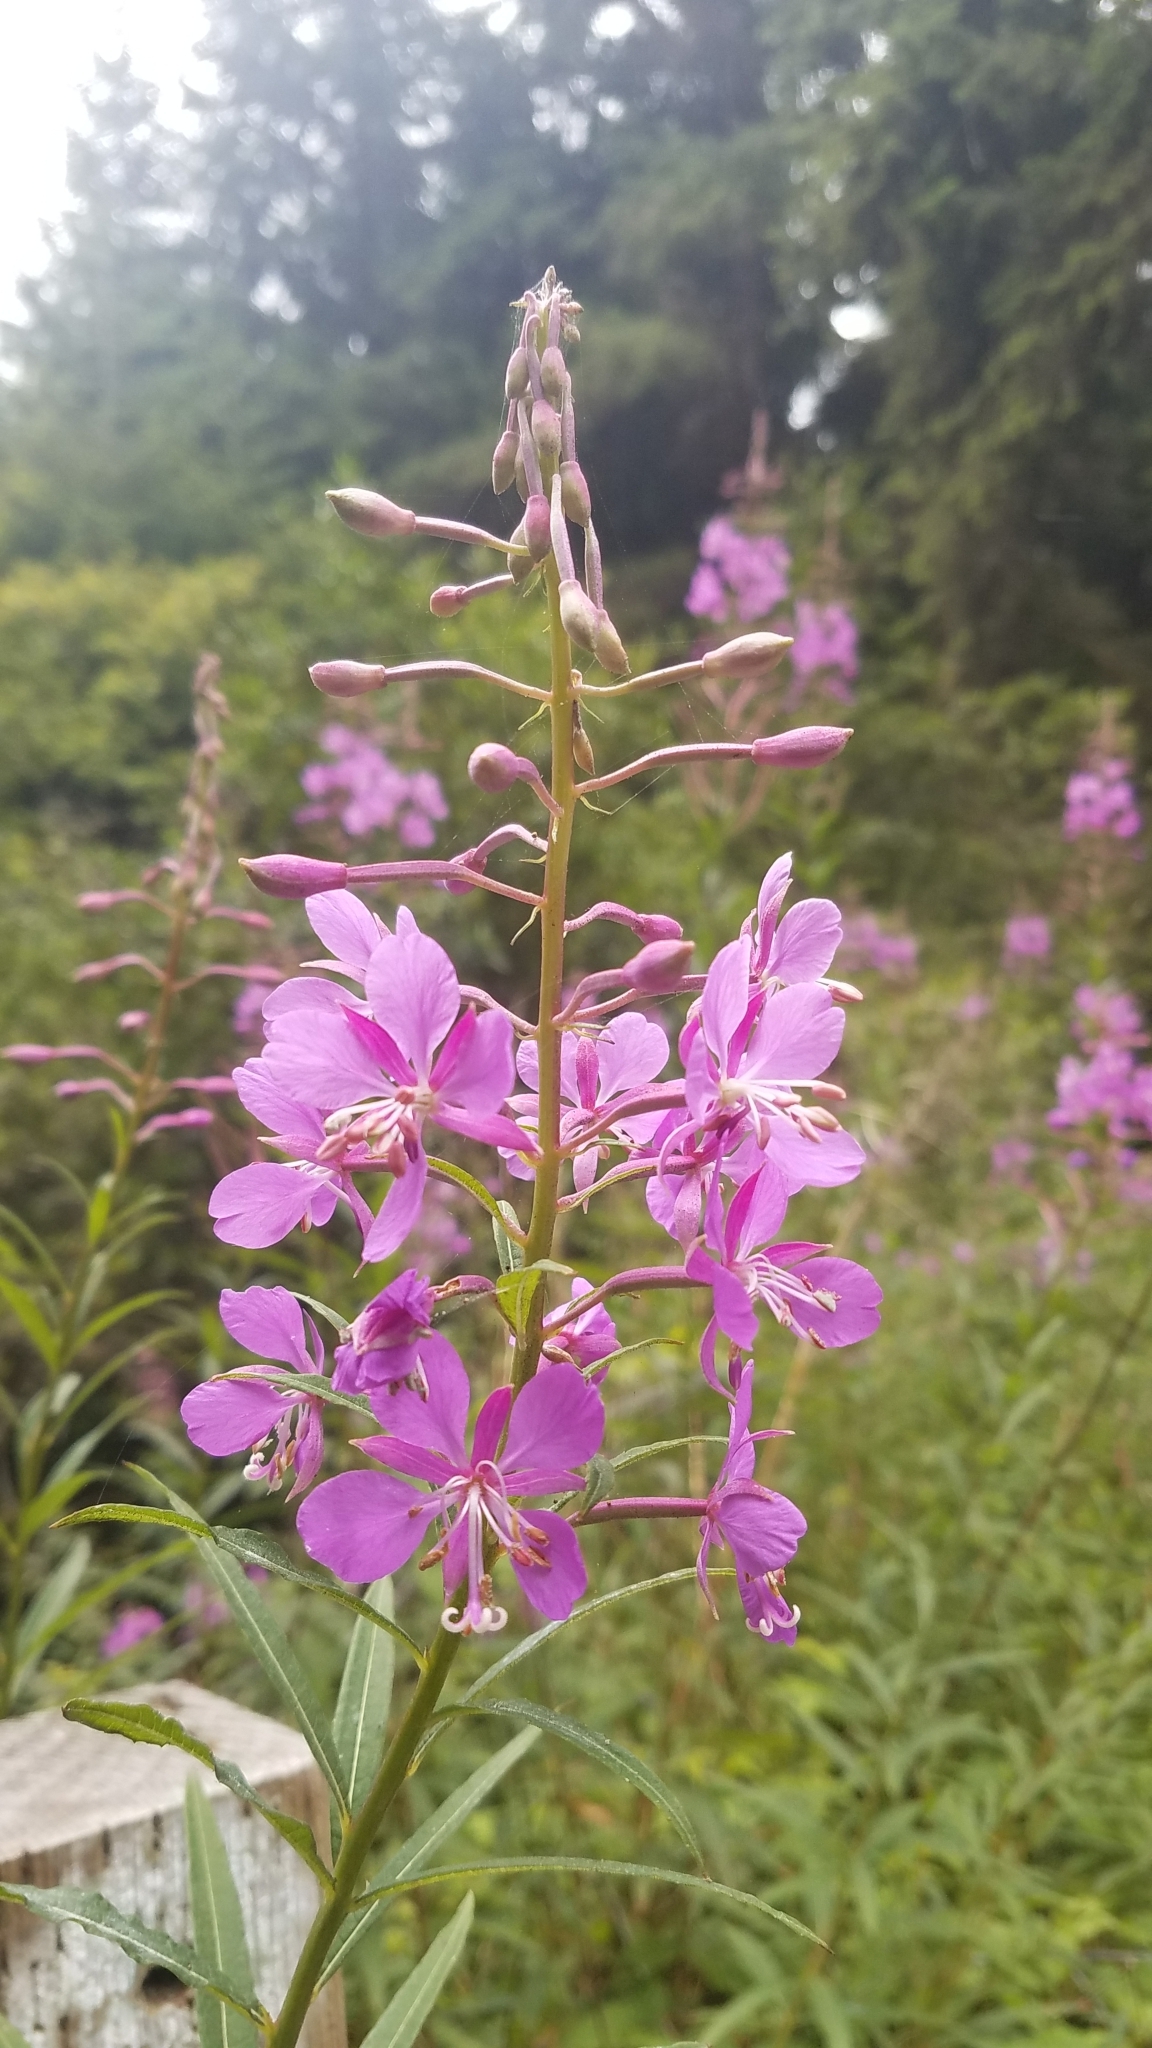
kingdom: Plantae
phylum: Tracheophyta
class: Magnoliopsida
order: Myrtales
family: Onagraceae
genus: Chamaenerion
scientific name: Chamaenerion angustifolium
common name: Fireweed
